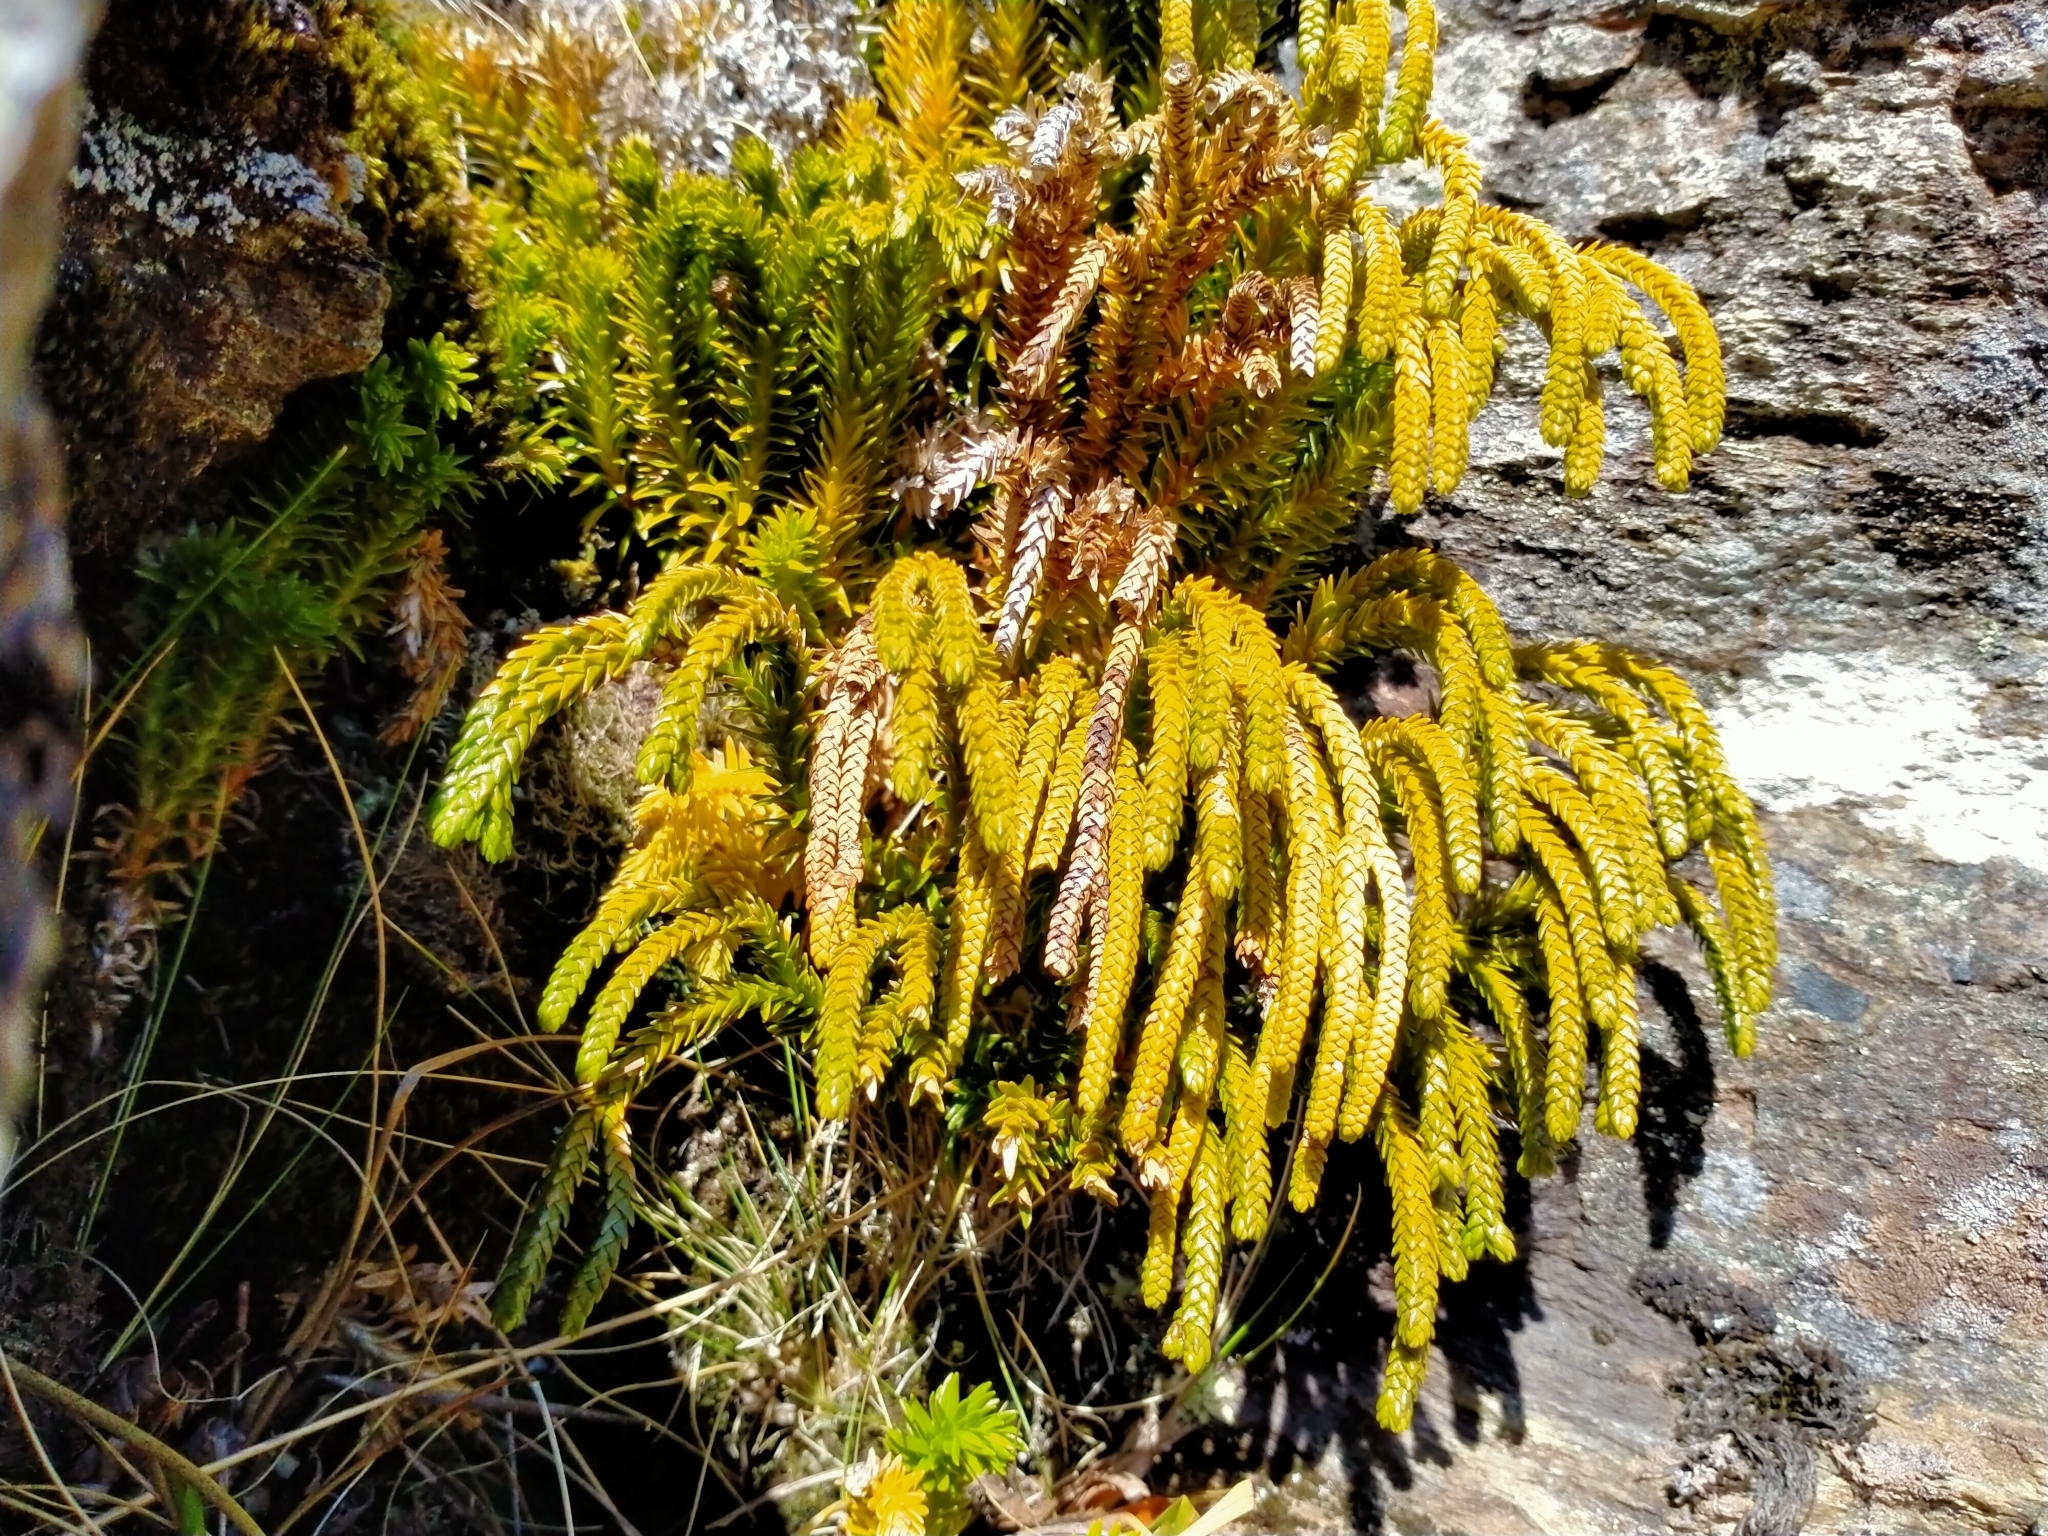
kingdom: Plantae
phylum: Tracheophyta
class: Lycopodiopsida
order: Lycopodiales
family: Lycopodiaceae
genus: Phlegmariurus
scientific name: Phlegmariurus varius
